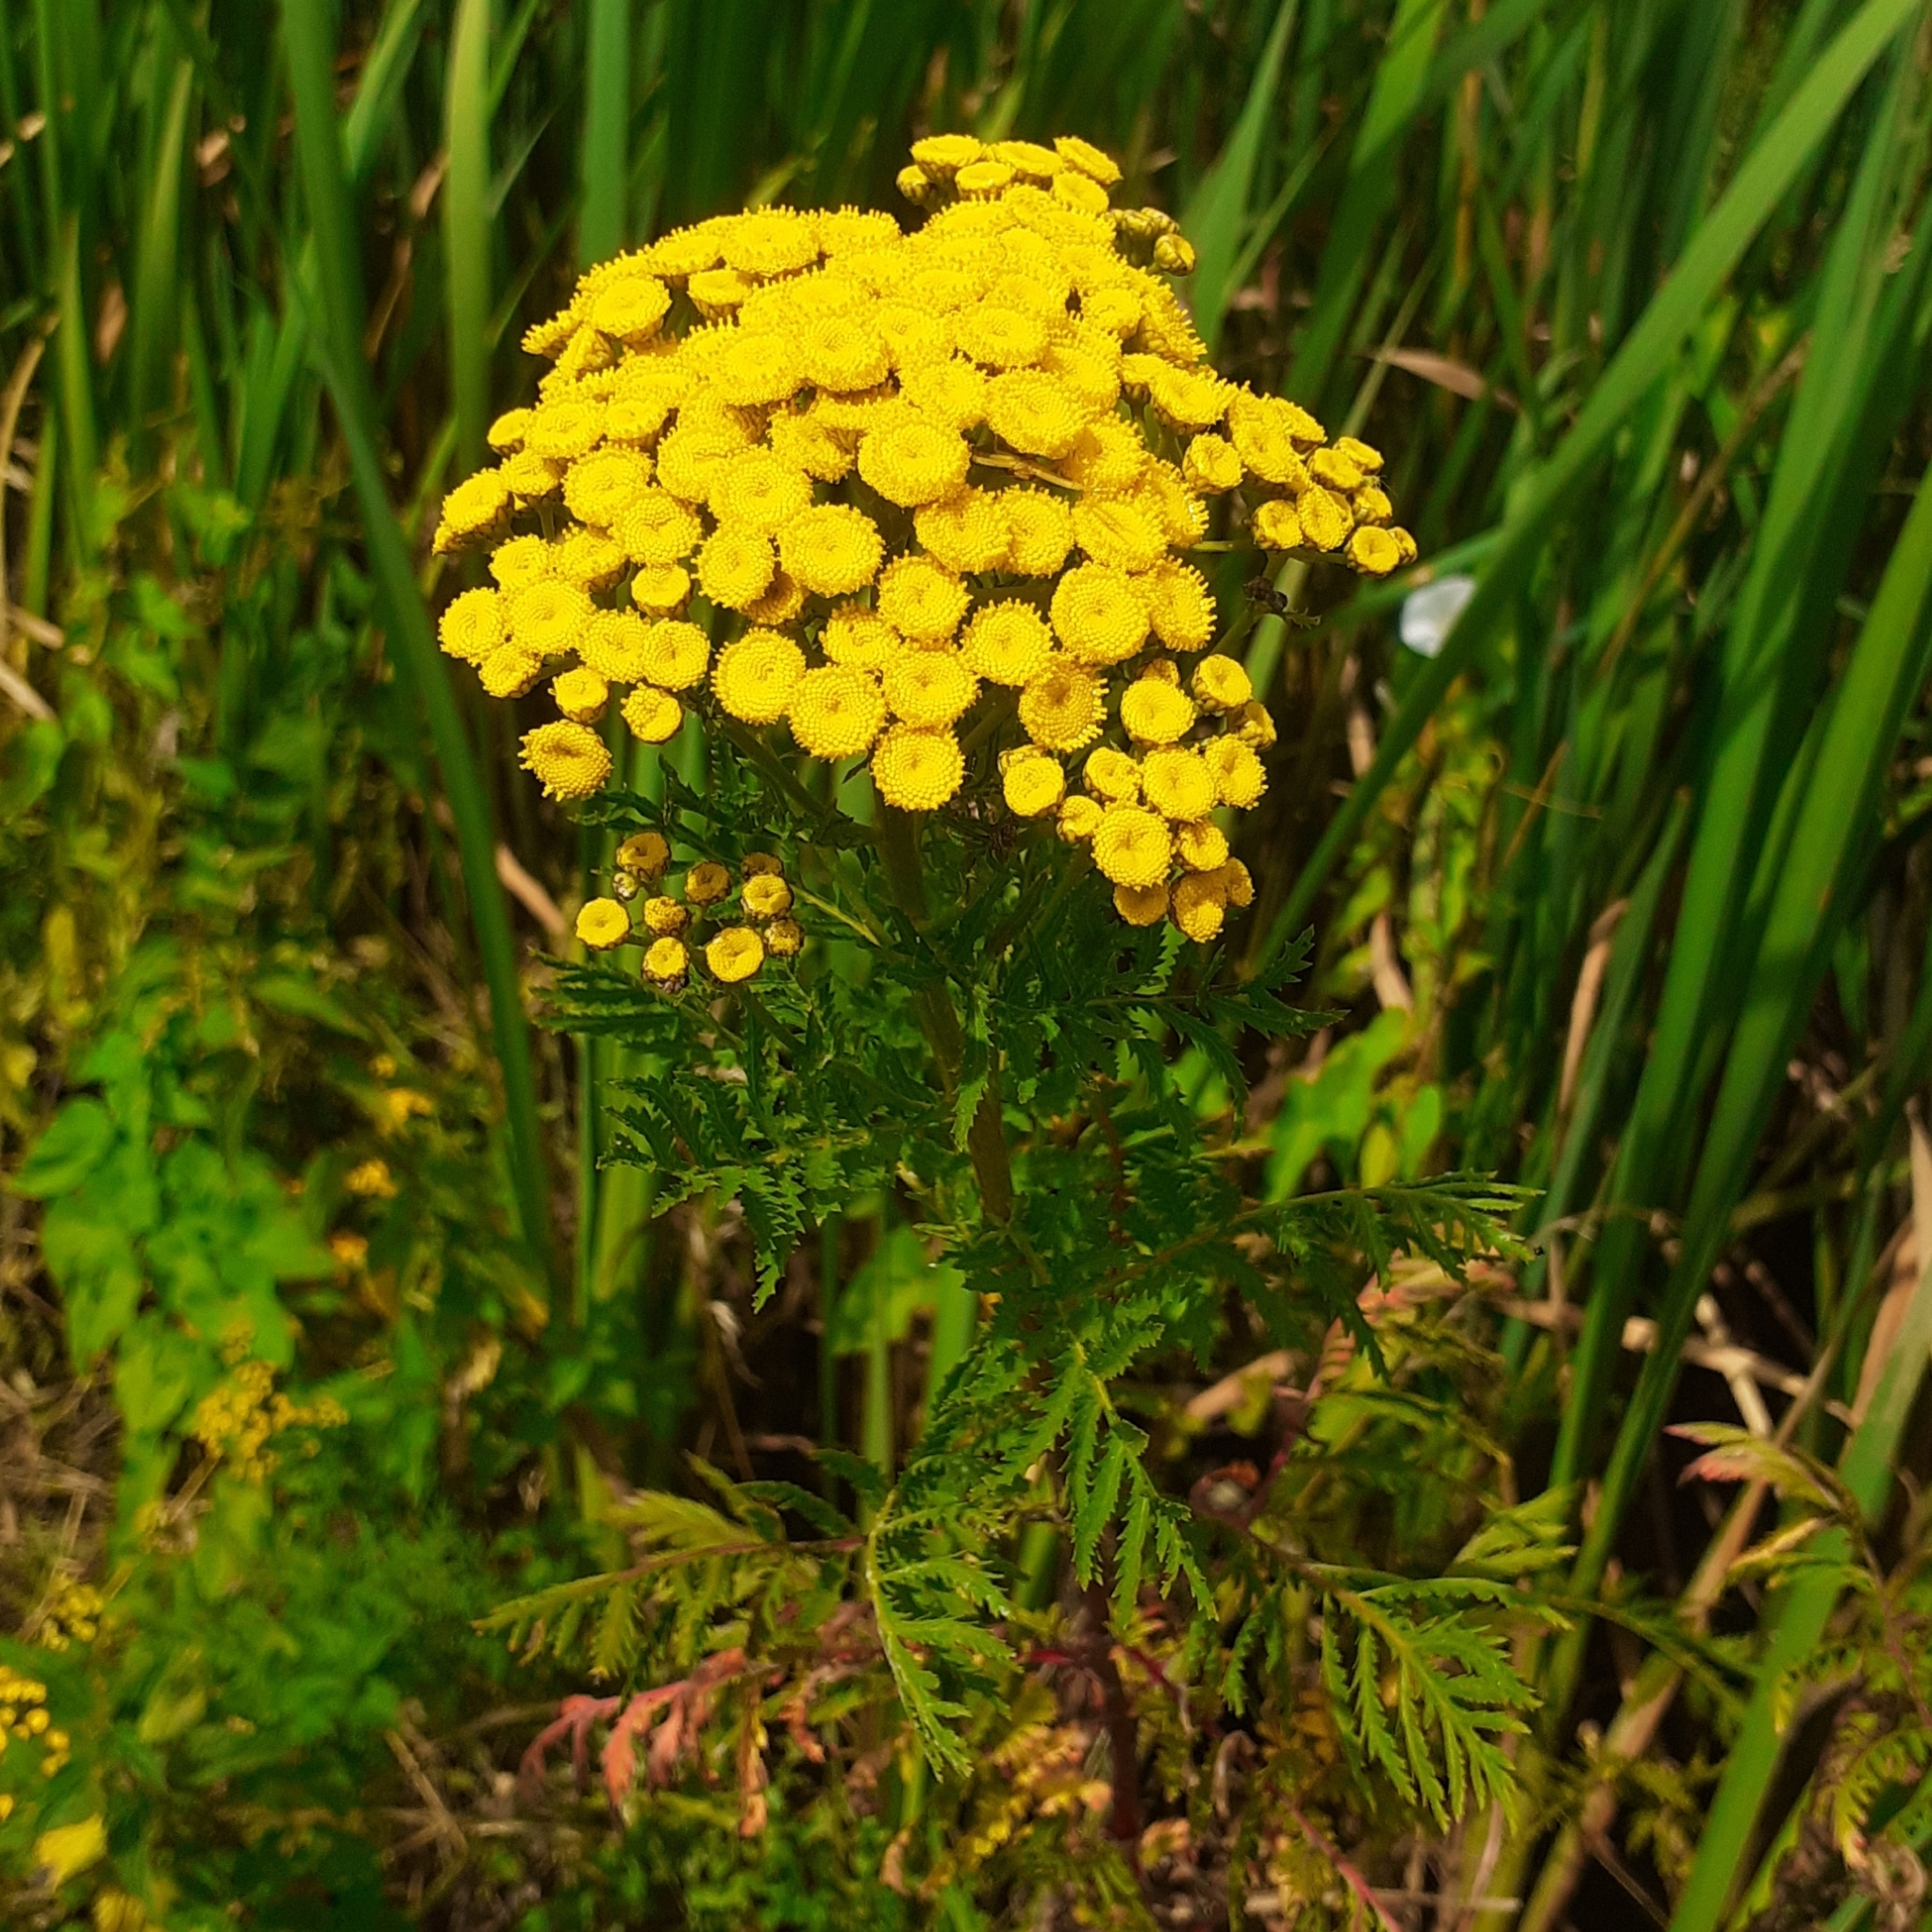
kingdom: Plantae
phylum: Tracheophyta
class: Magnoliopsida
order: Asterales
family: Asteraceae
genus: Tanacetum
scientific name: Tanacetum vulgare
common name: Common tansy
